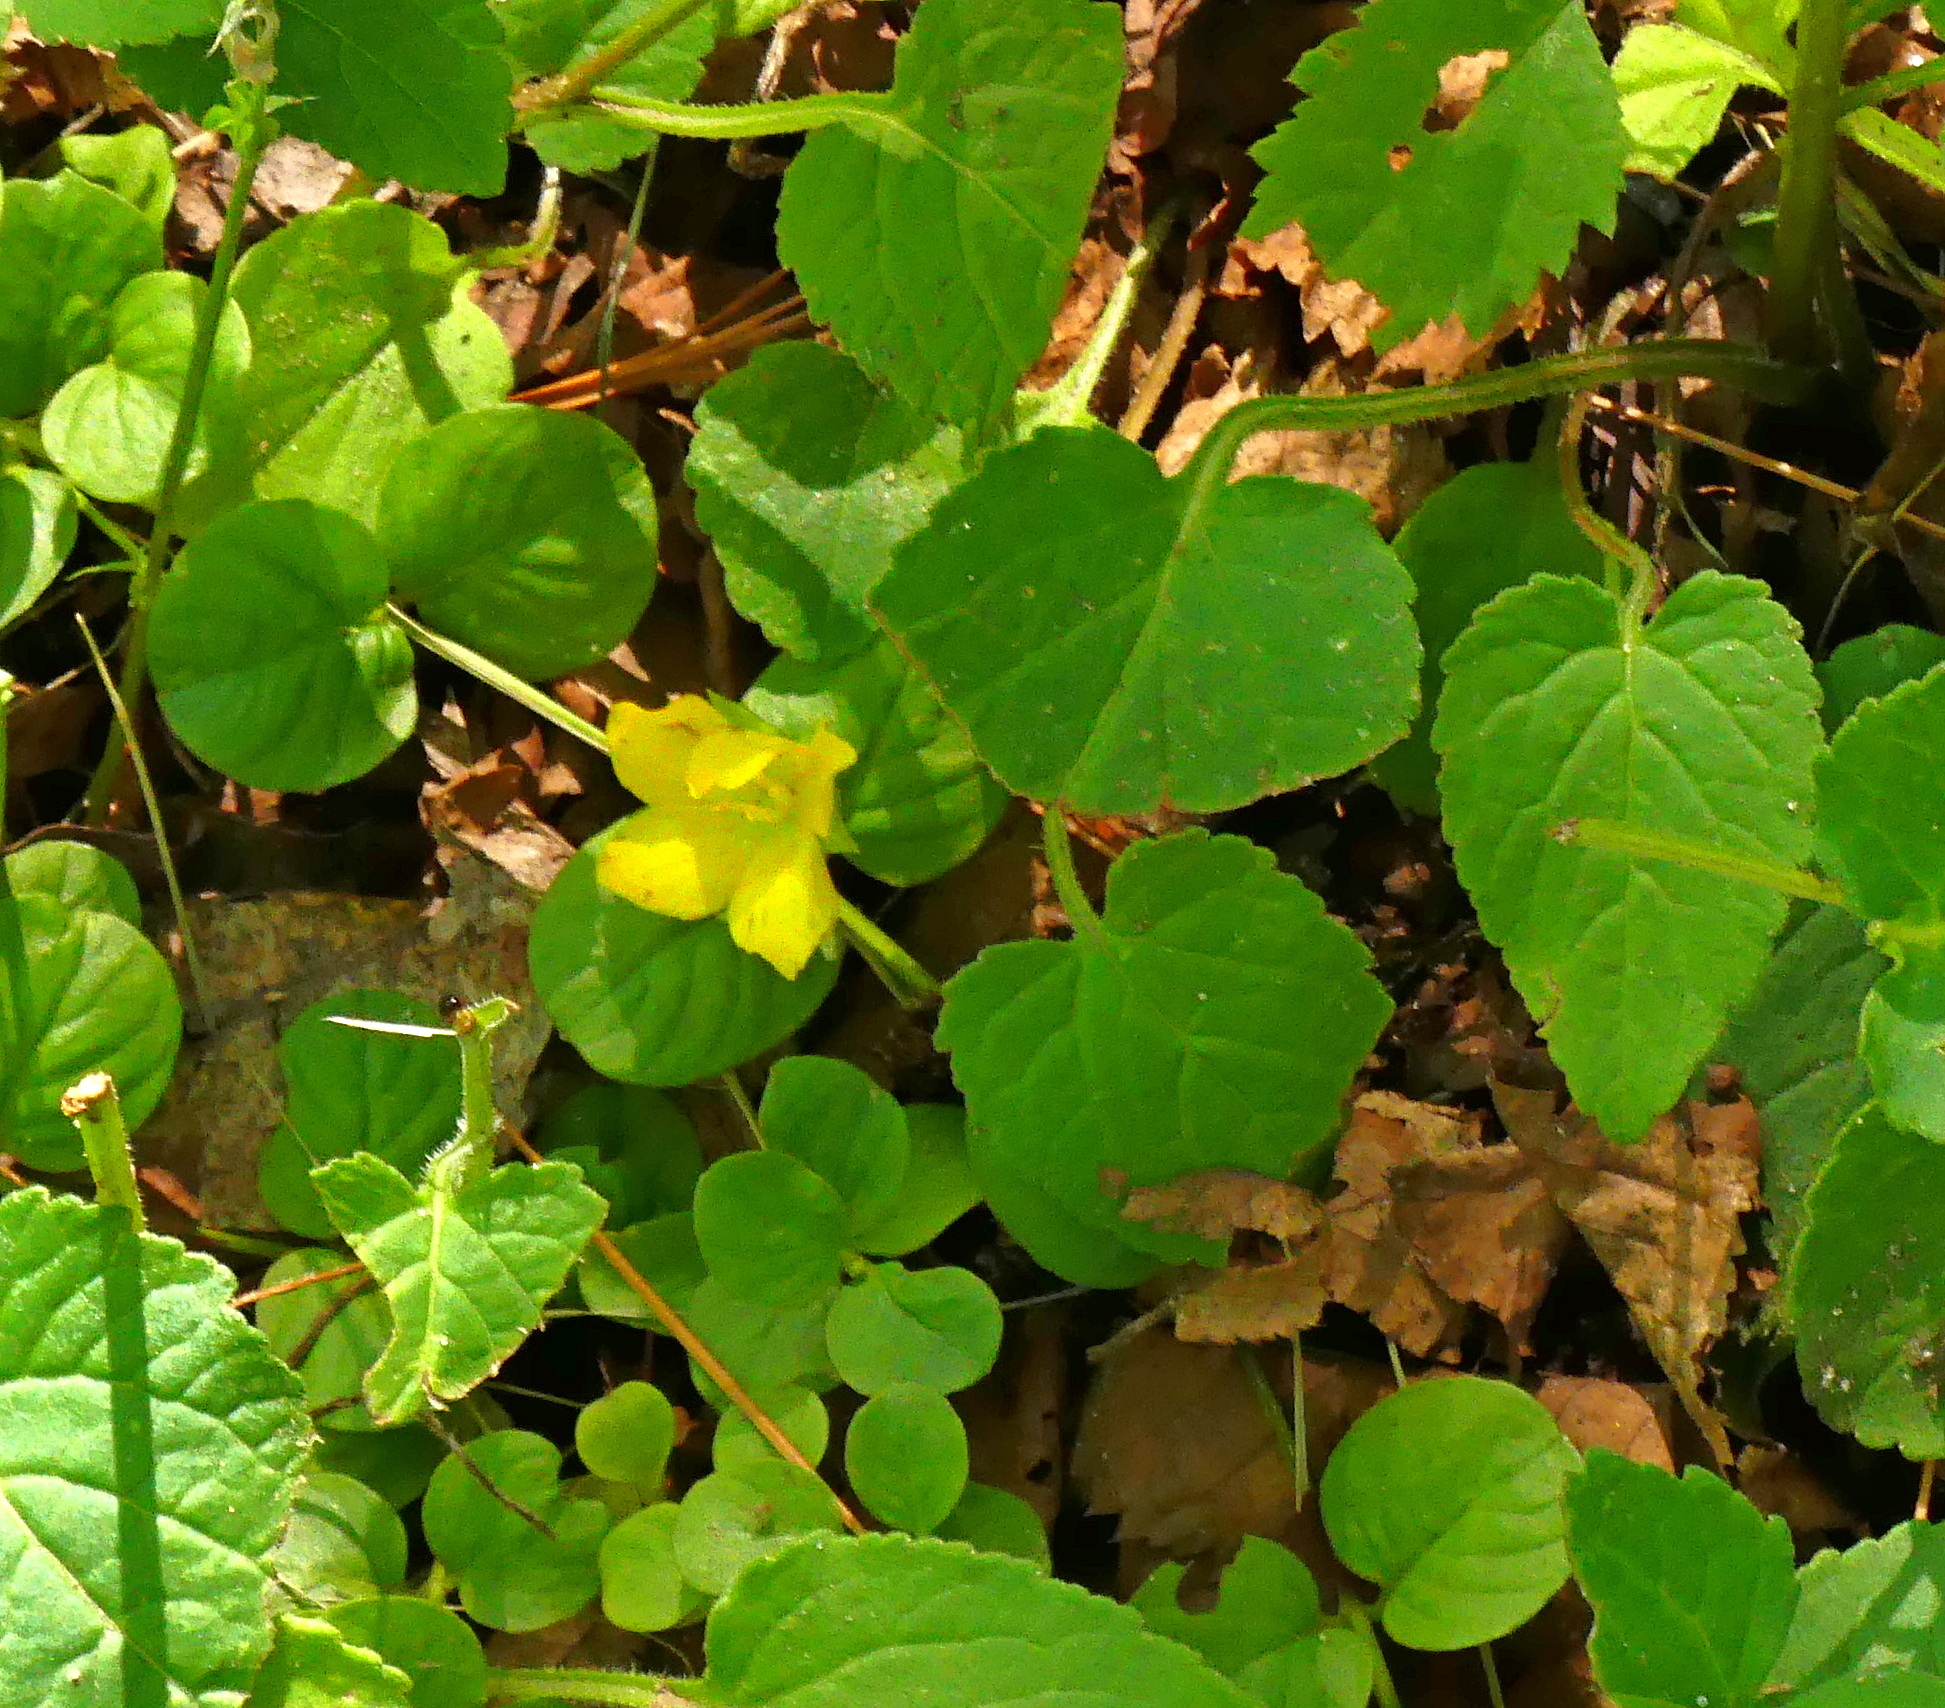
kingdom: Plantae
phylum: Tracheophyta
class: Magnoliopsida
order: Ericales
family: Primulaceae
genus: Lysimachia
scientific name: Lysimachia nummularia
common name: Moneywort
